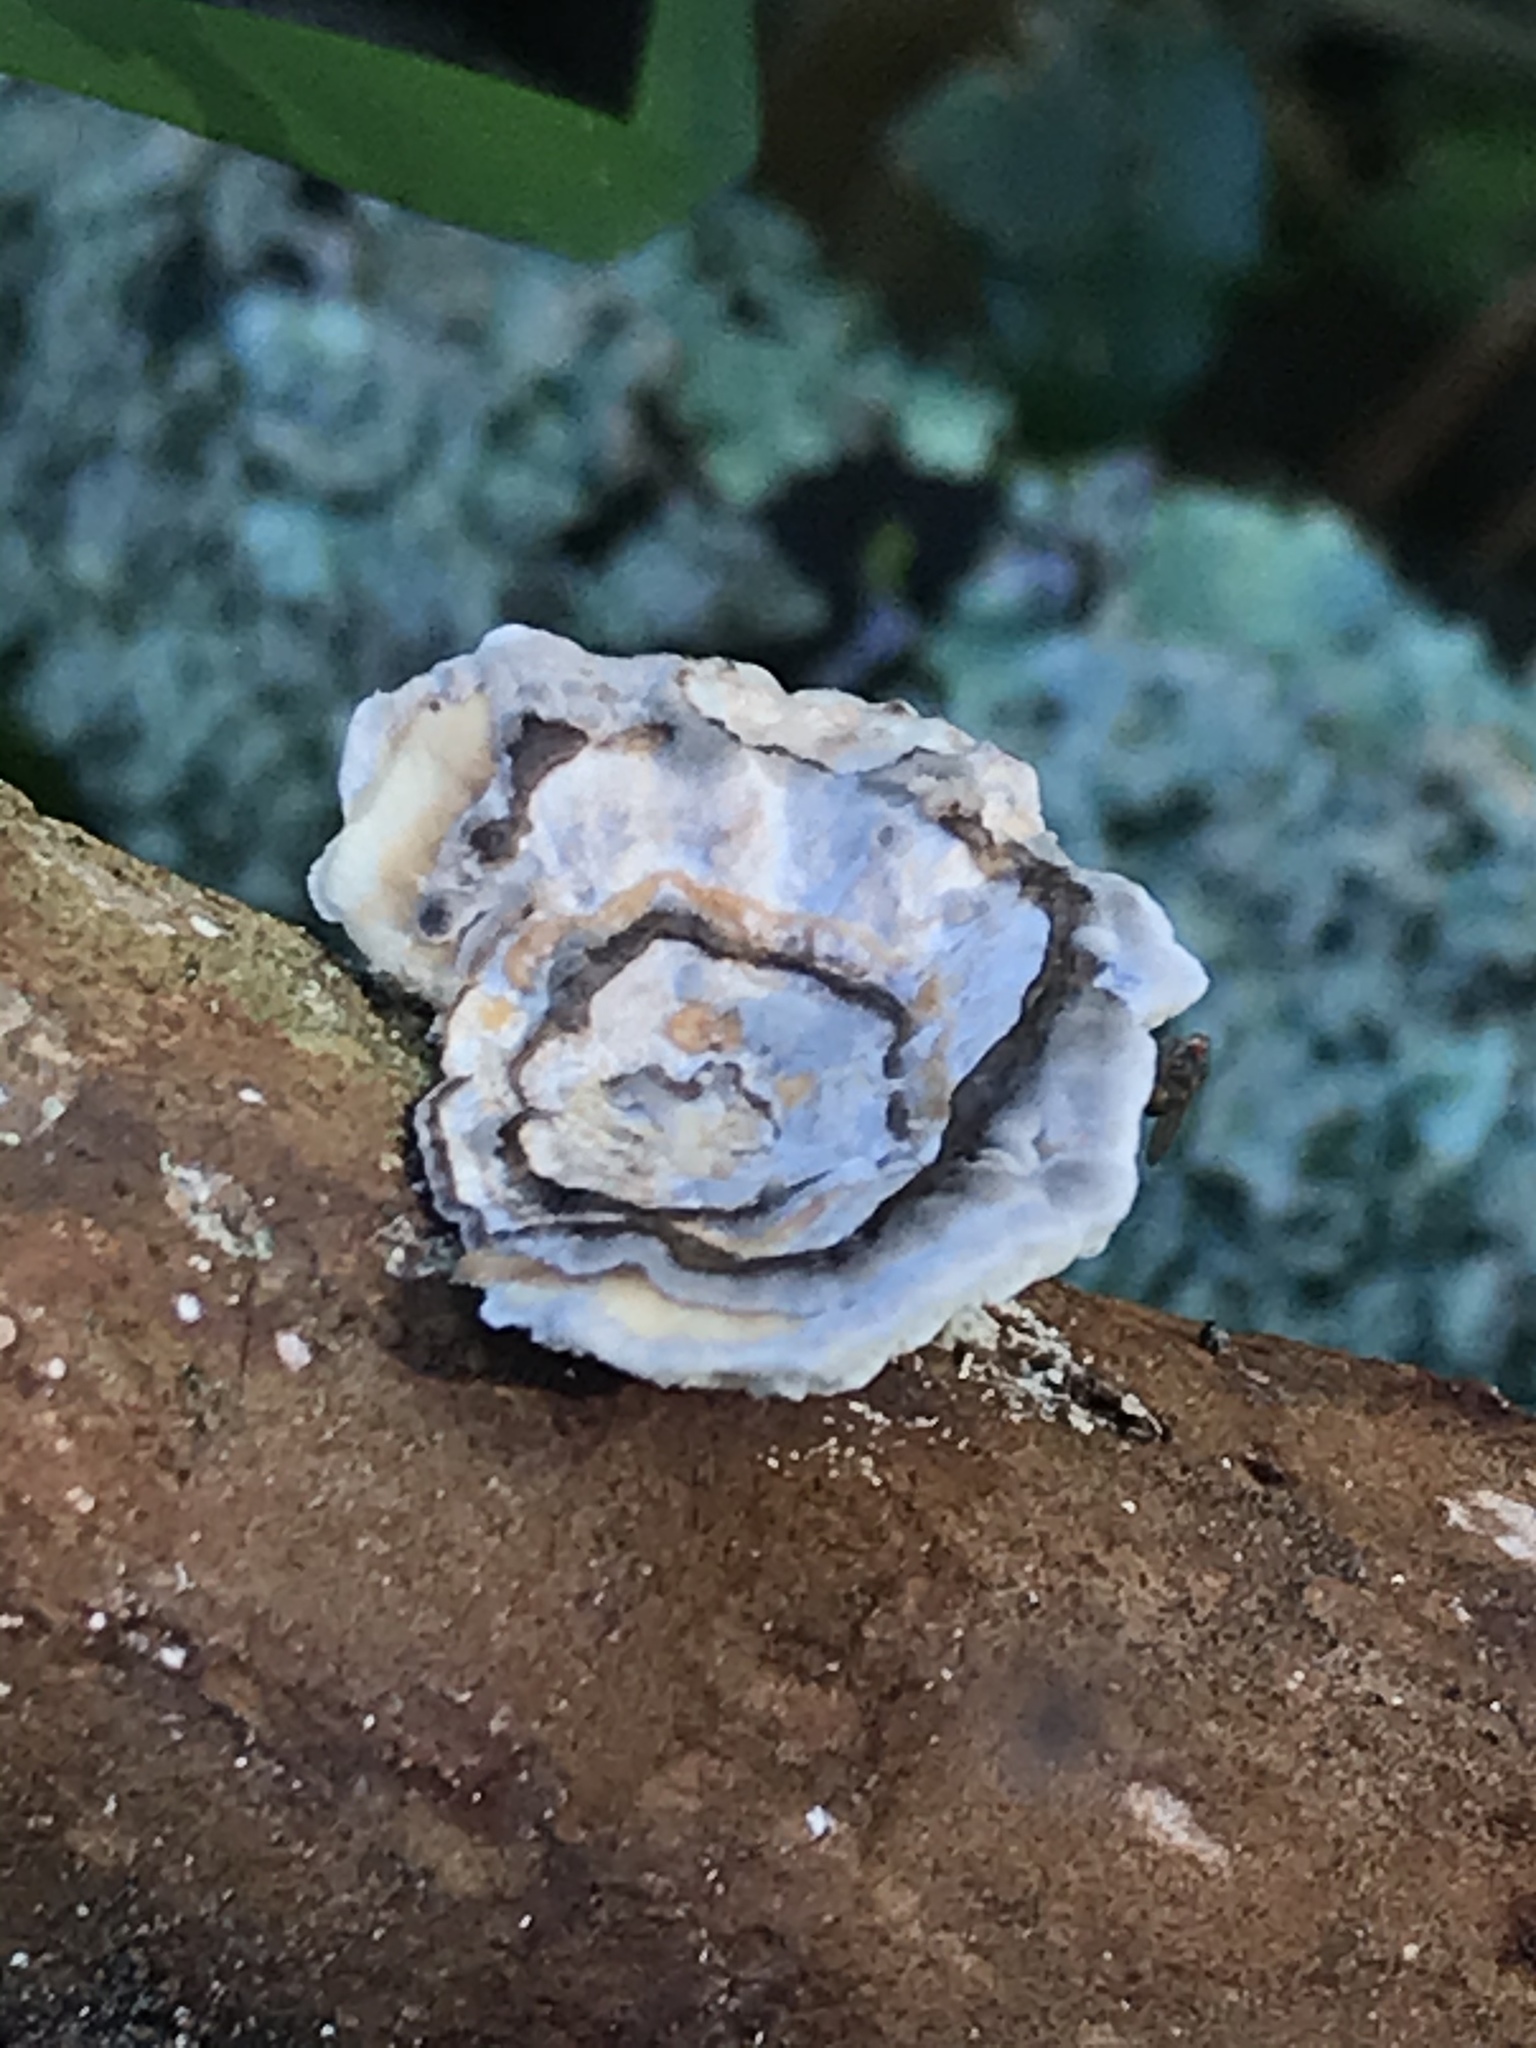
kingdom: Fungi
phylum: Basidiomycota
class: Agaricomycetes
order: Polyporales
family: Polyporaceae
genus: Poronidulus
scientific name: Poronidulus conchifer
